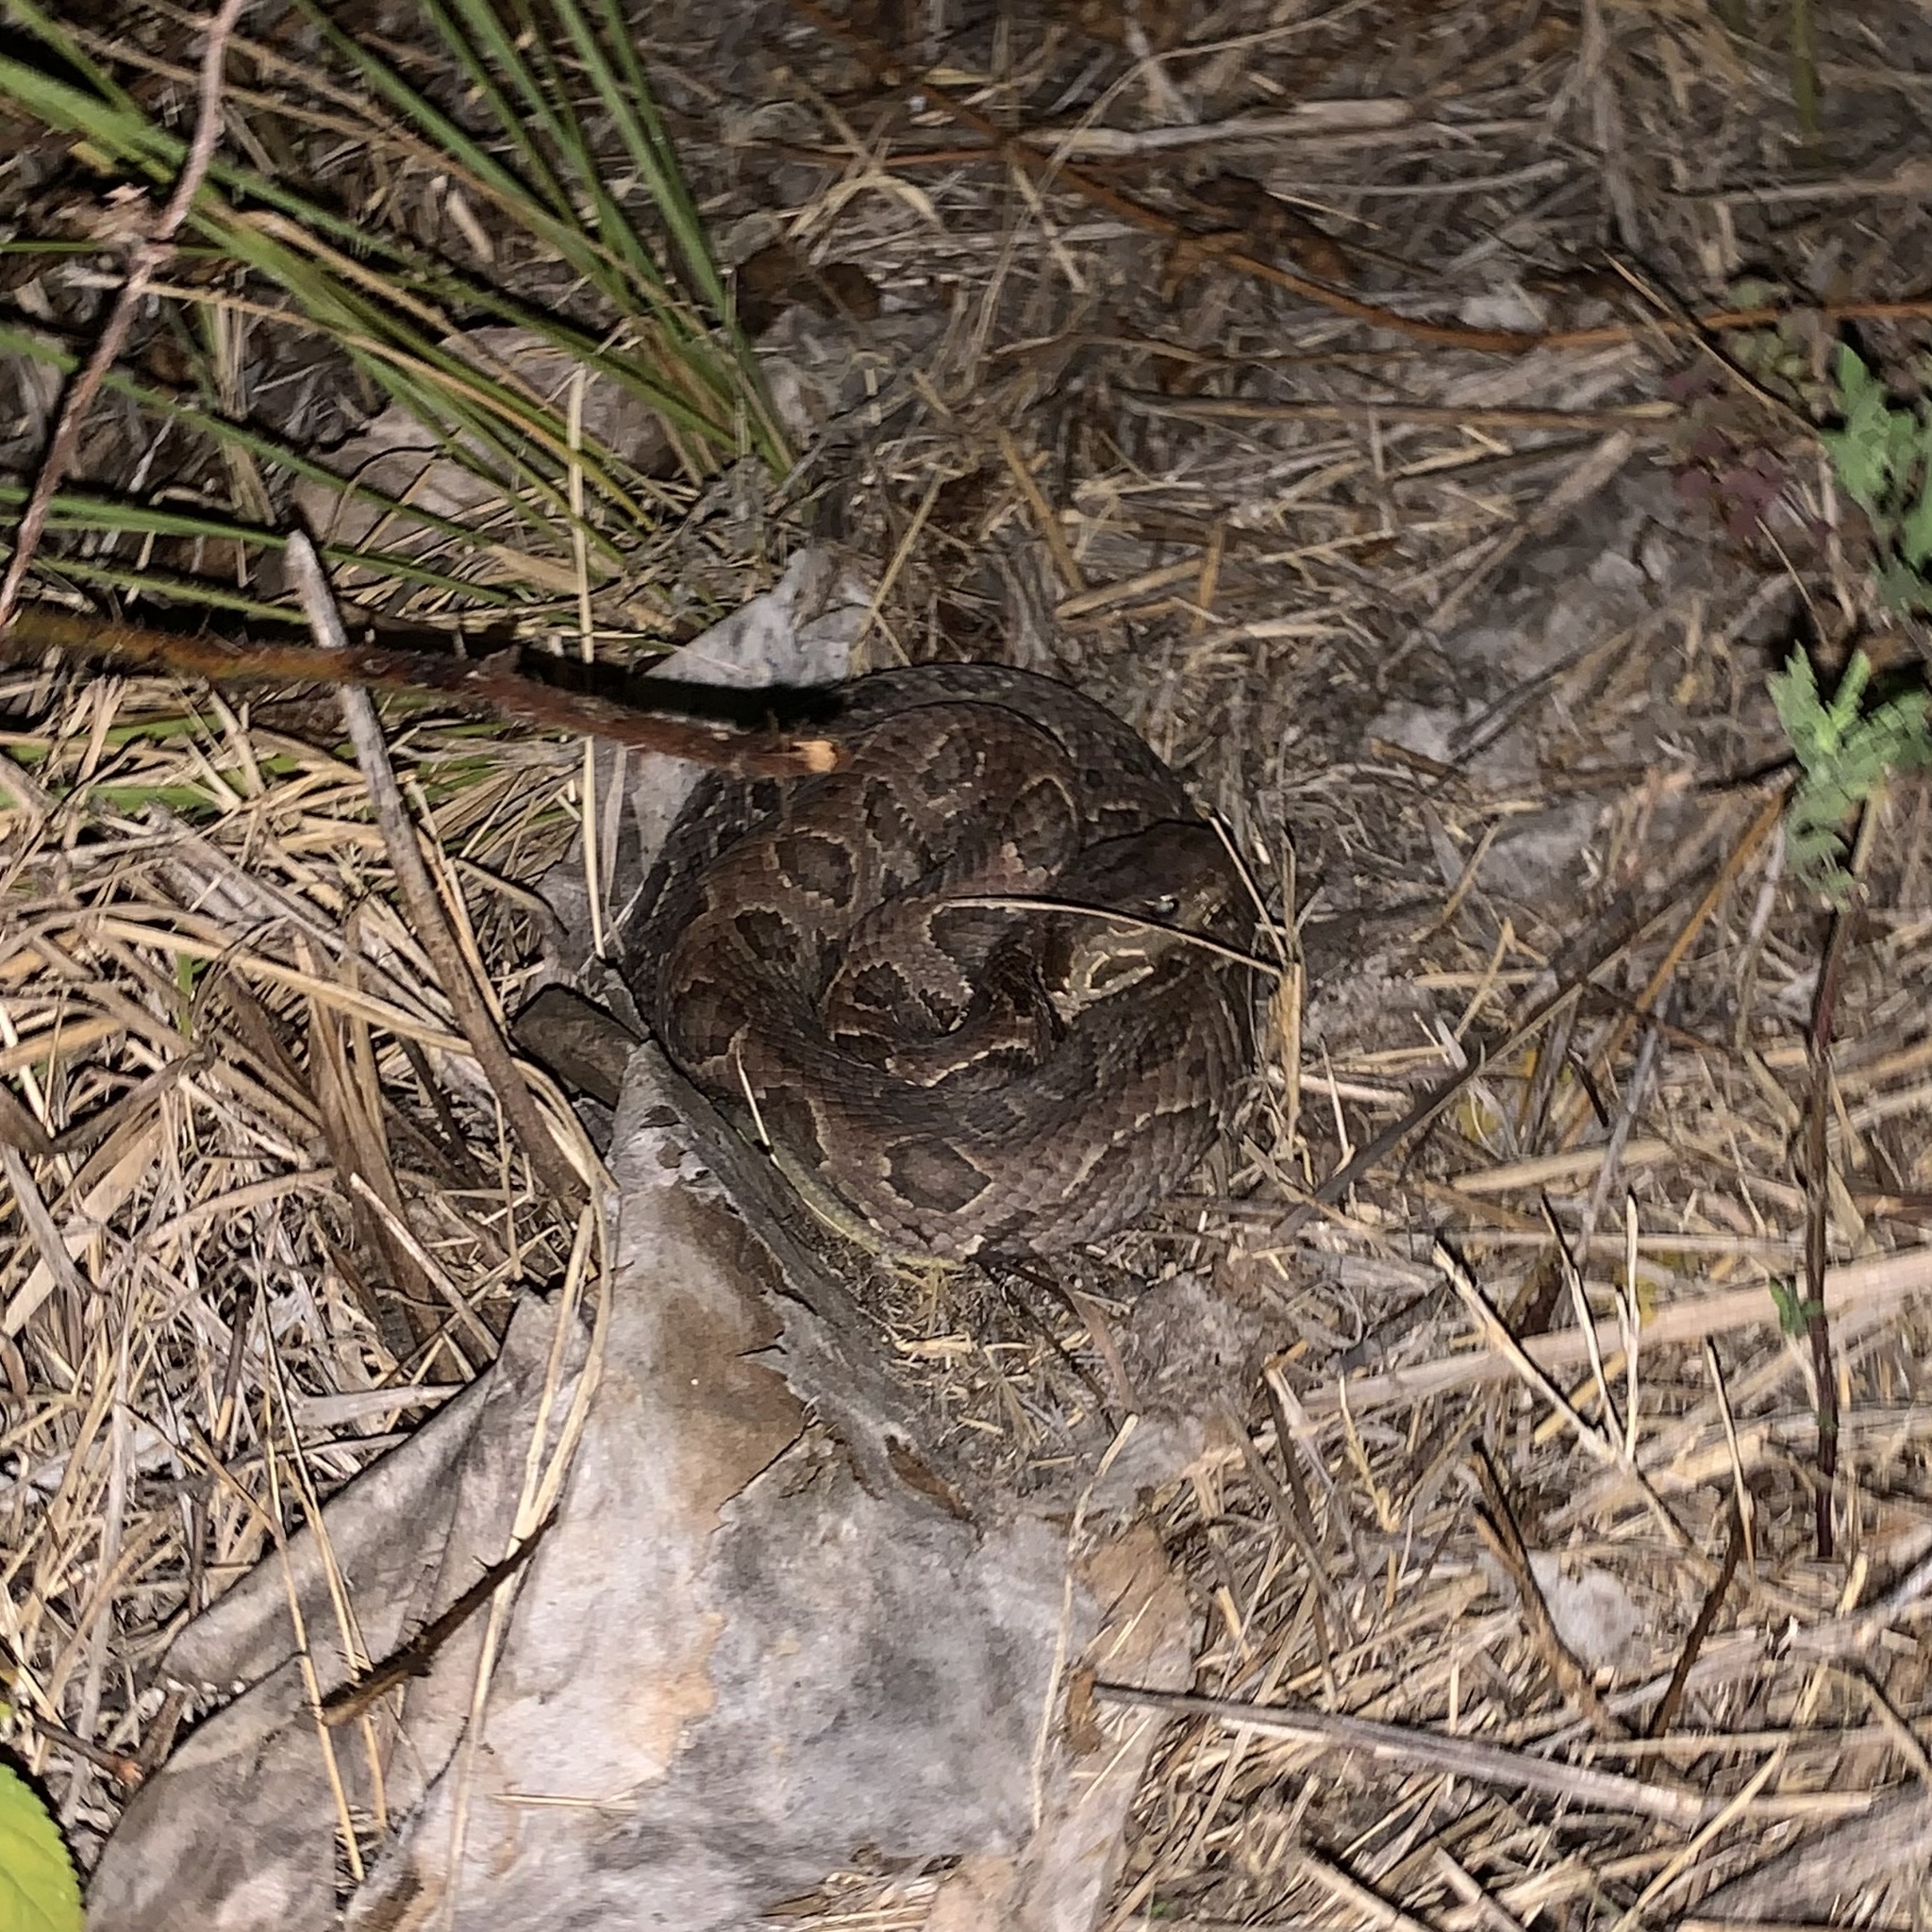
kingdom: Animalia
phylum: Chordata
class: Squamata
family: Viperidae
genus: Agkistrodon
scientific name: Agkistrodon piscivorus
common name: Cottonmouth
